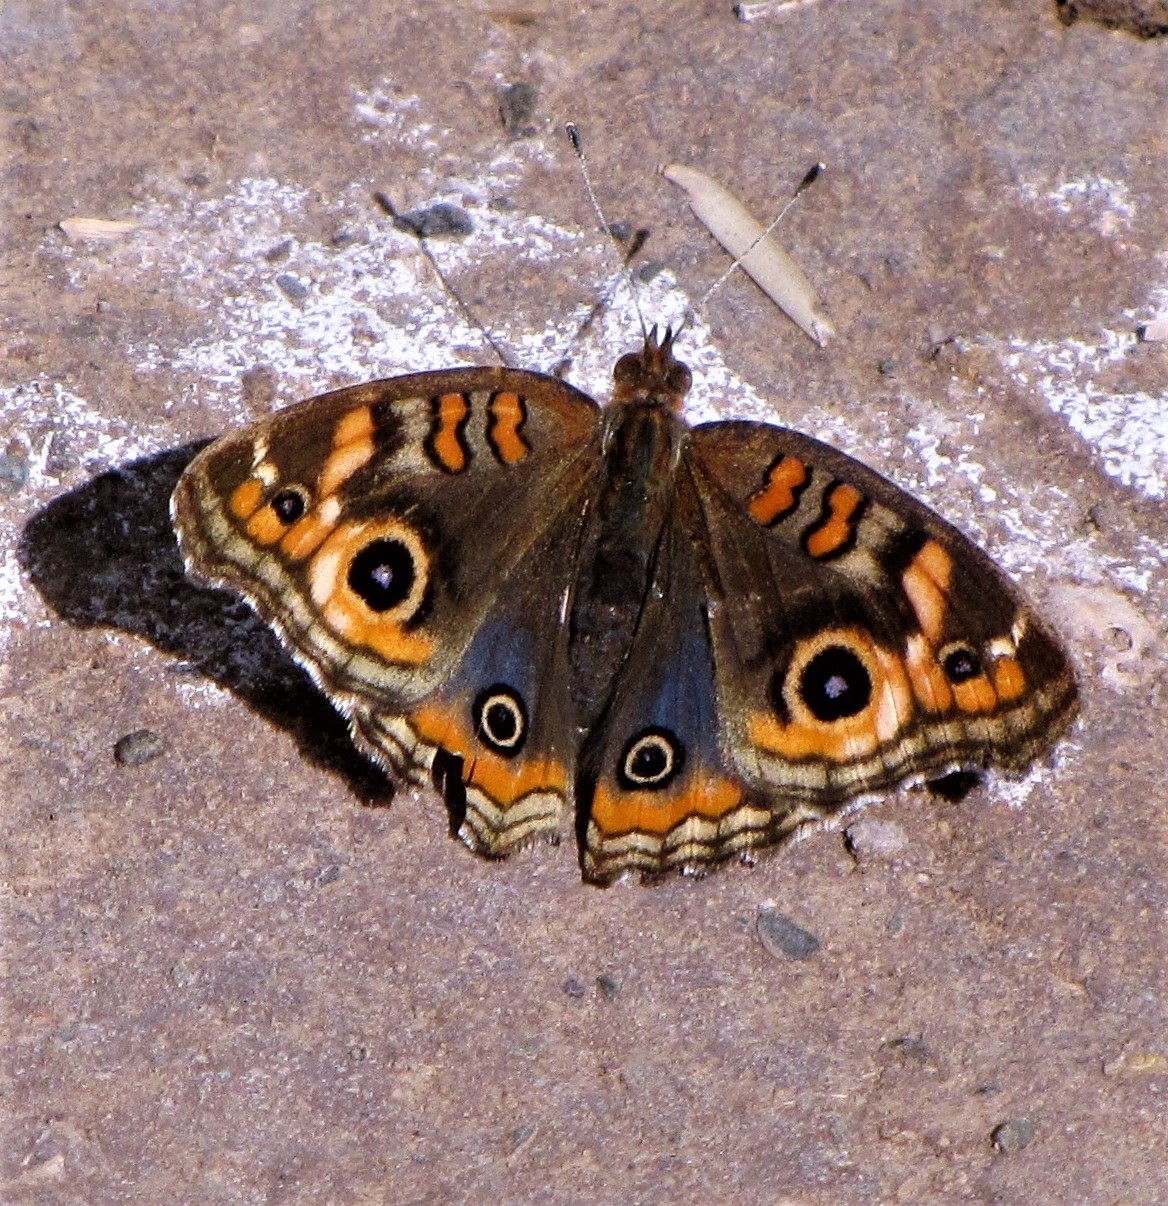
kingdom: Animalia
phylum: Arthropoda
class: Insecta
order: Lepidoptera
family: Nymphalidae
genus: Junonia
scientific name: Junonia lavinia
